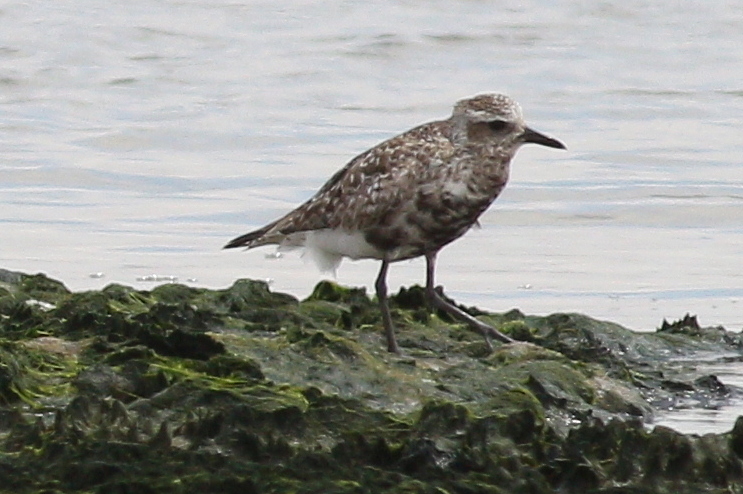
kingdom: Animalia
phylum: Chordata
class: Aves
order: Charadriiformes
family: Charadriidae
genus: Pluvialis
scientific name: Pluvialis squatarola
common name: Grey plover
